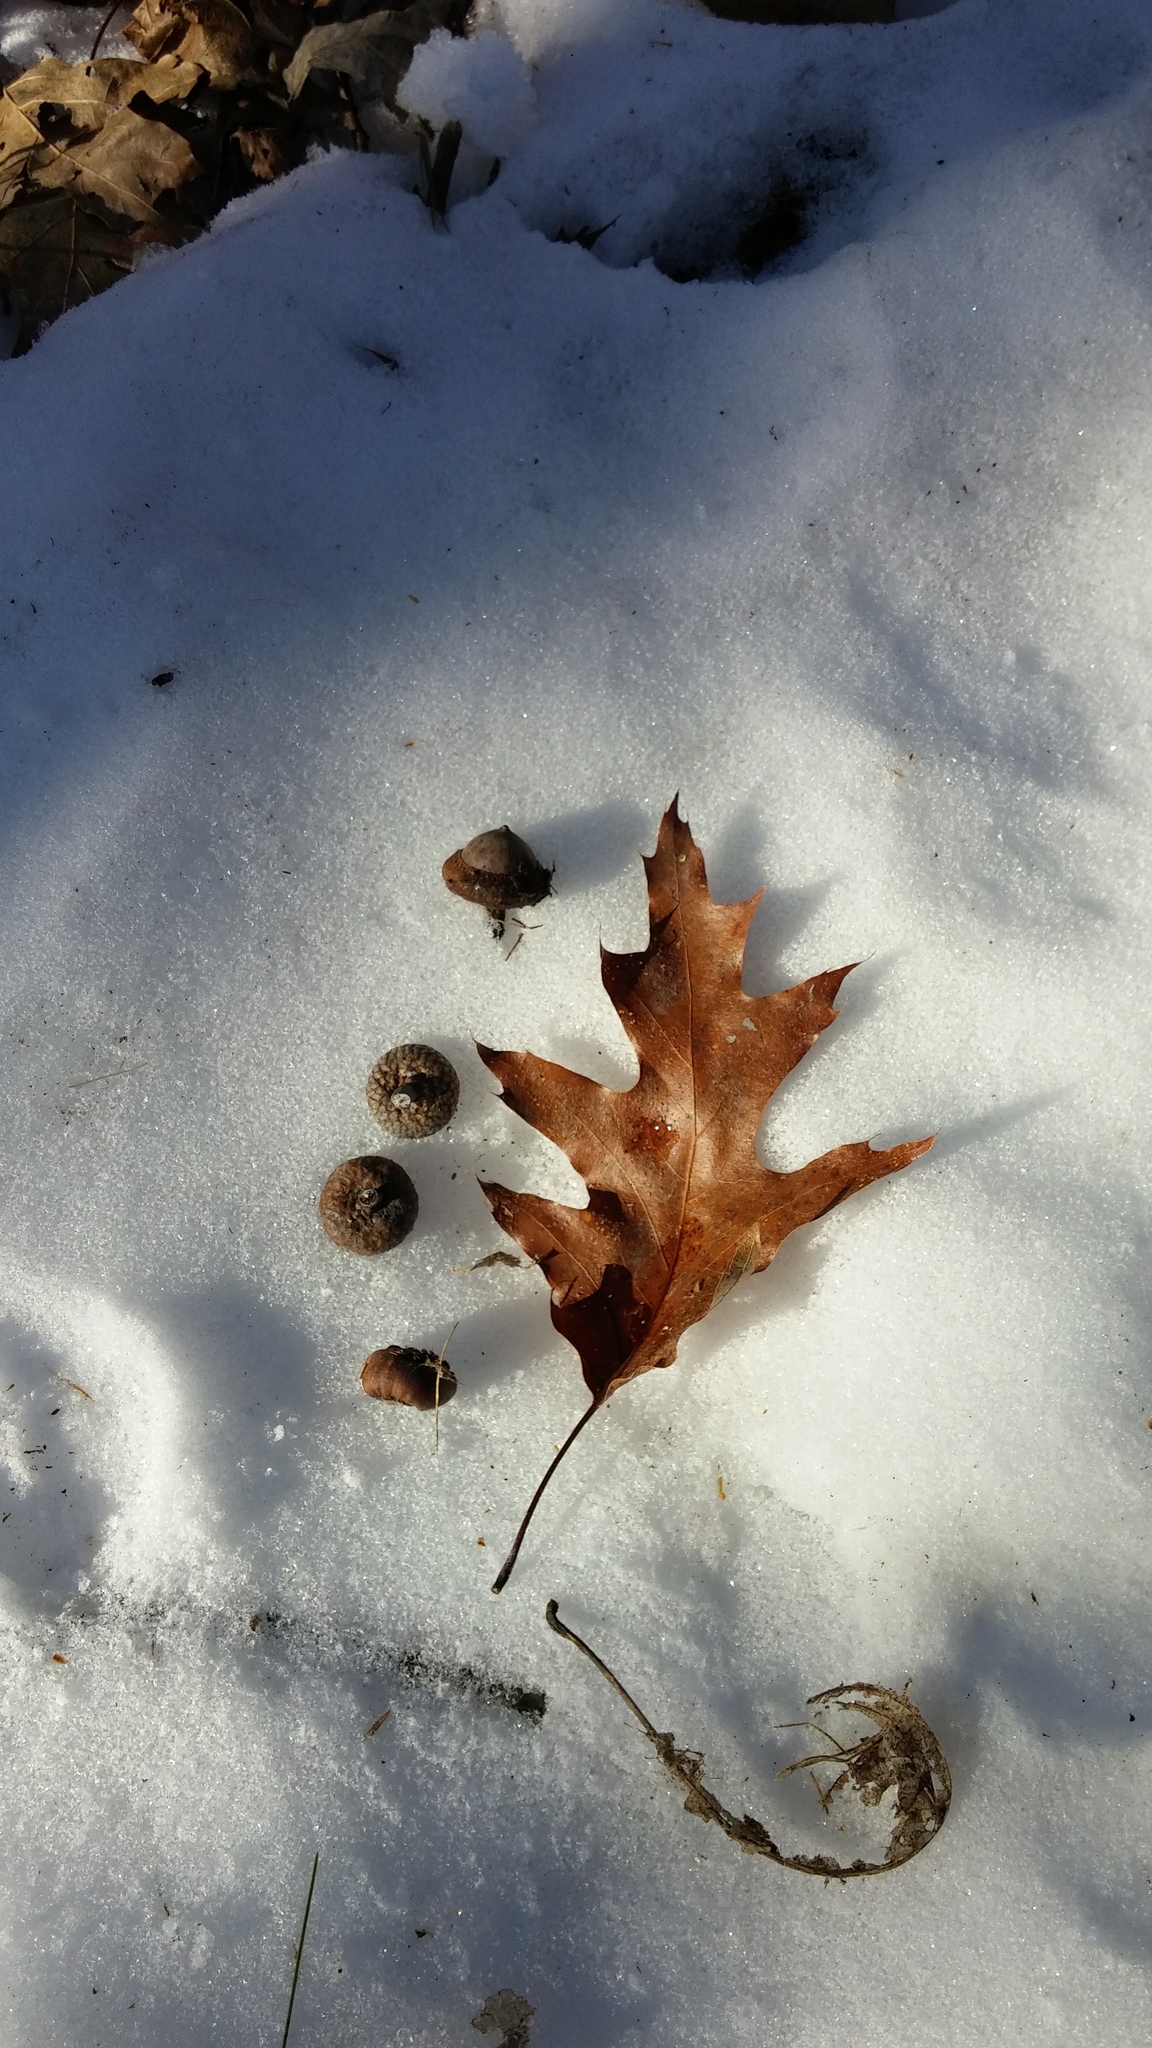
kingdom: Plantae
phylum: Tracheophyta
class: Magnoliopsida
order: Fagales
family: Fagaceae
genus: Quercus
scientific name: Quercus rubra
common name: Red oak
